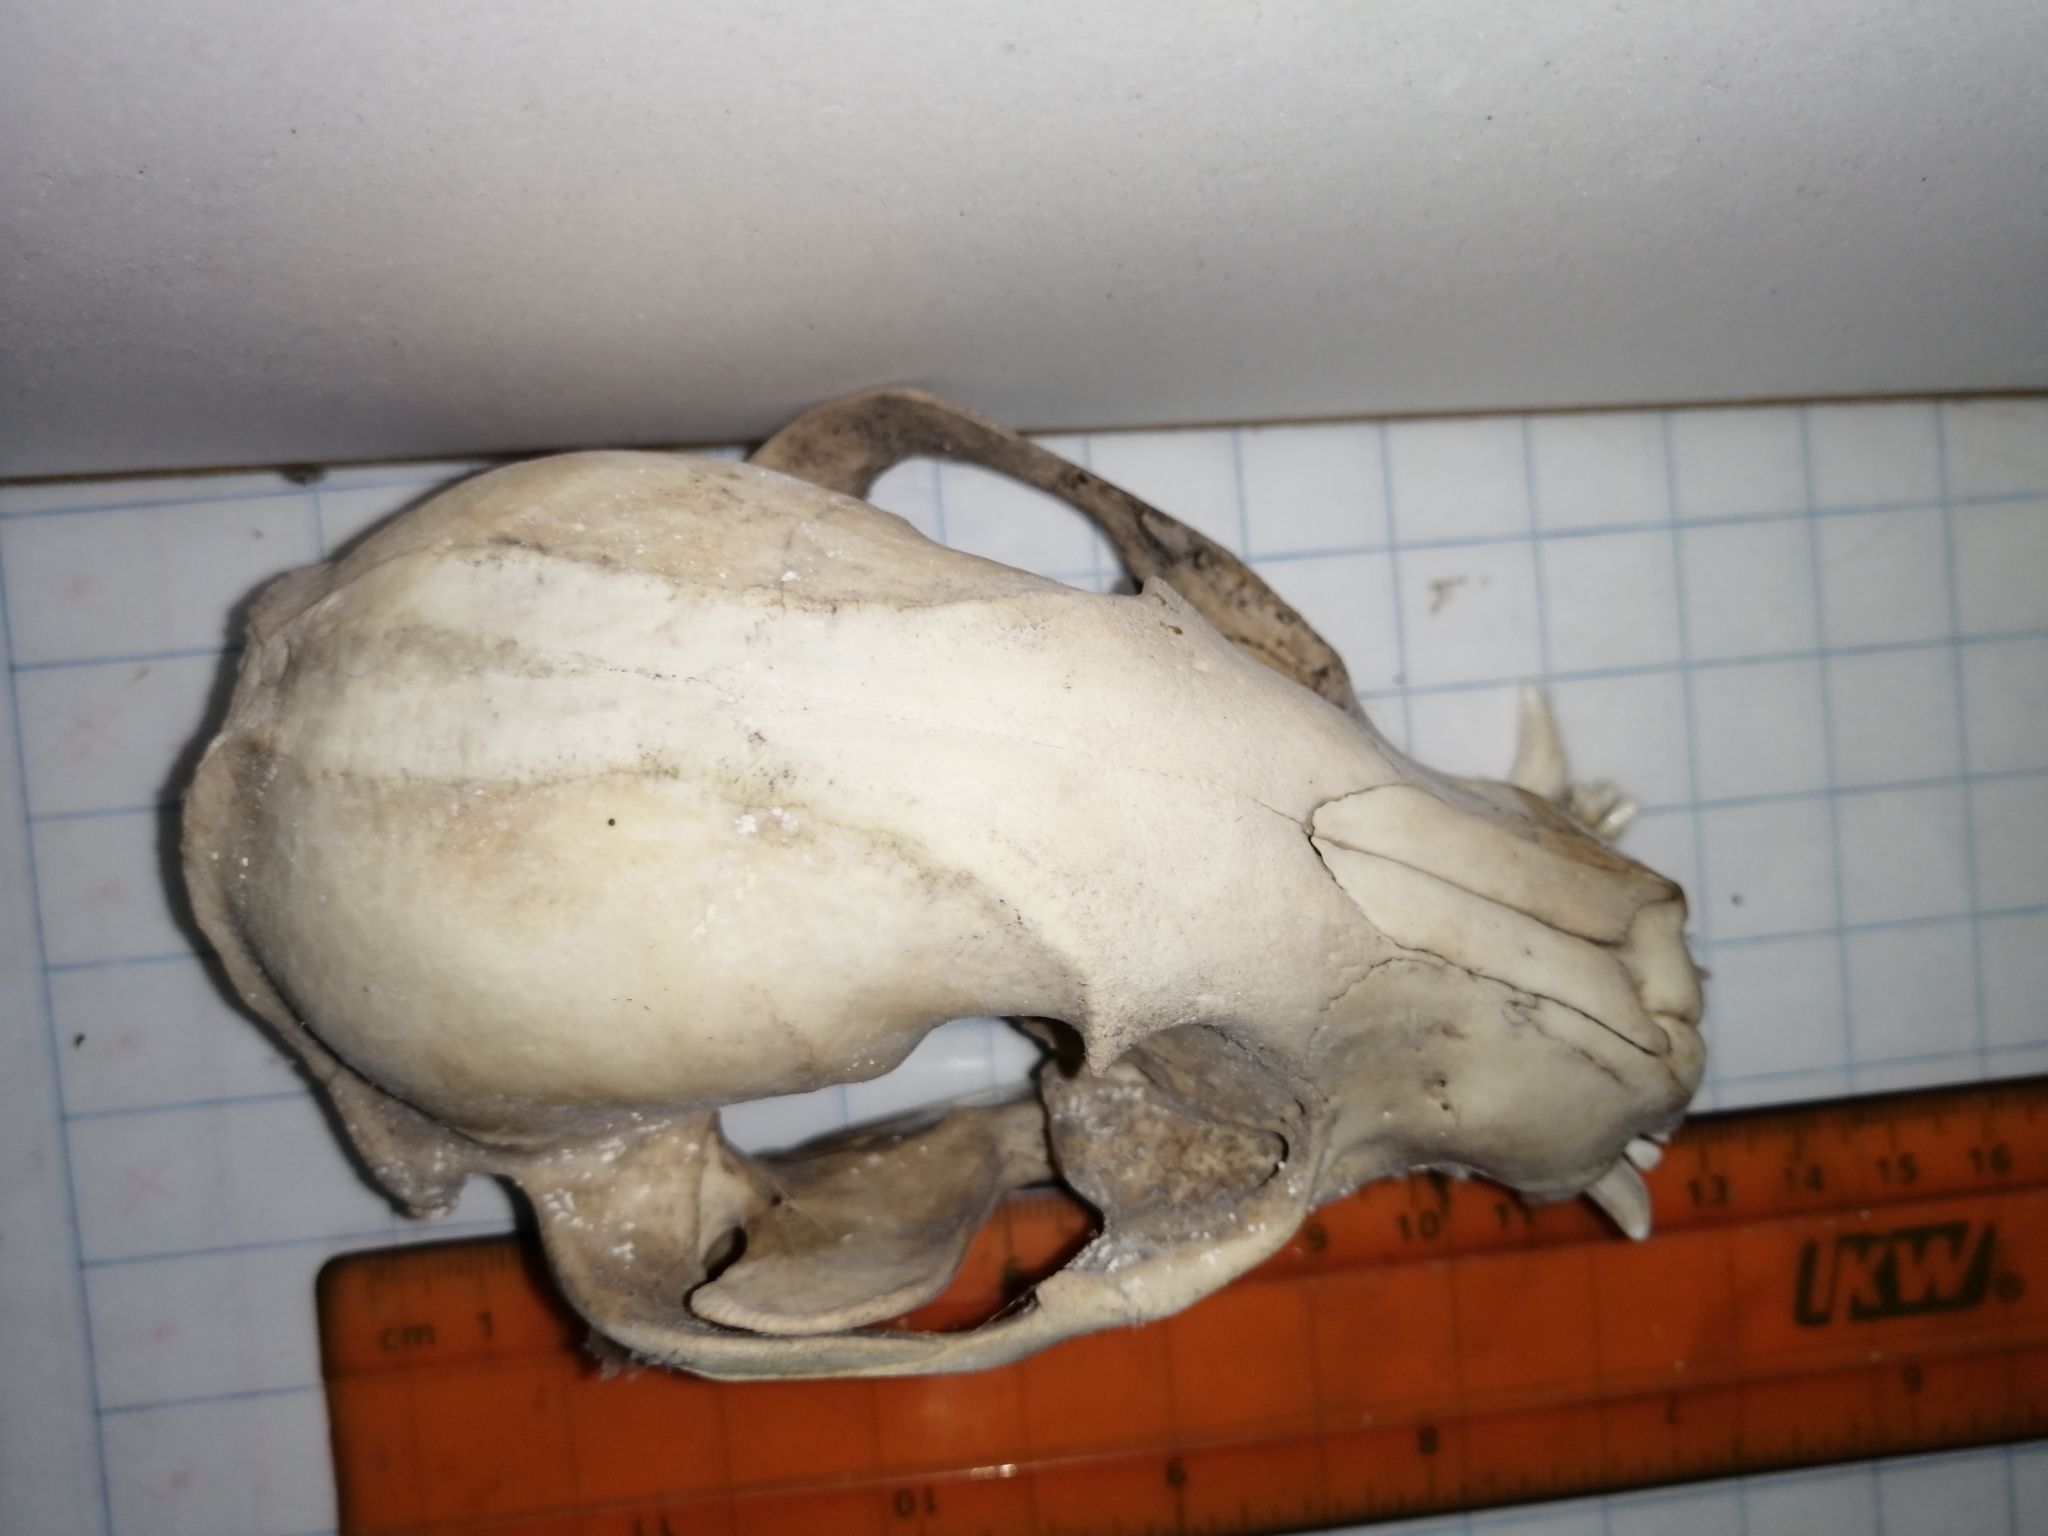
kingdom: Animalia
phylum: Chordata
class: Mammalia
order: Carnivora
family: Procyonidae
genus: Procyon
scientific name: Procyon lotor
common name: Raccoon
